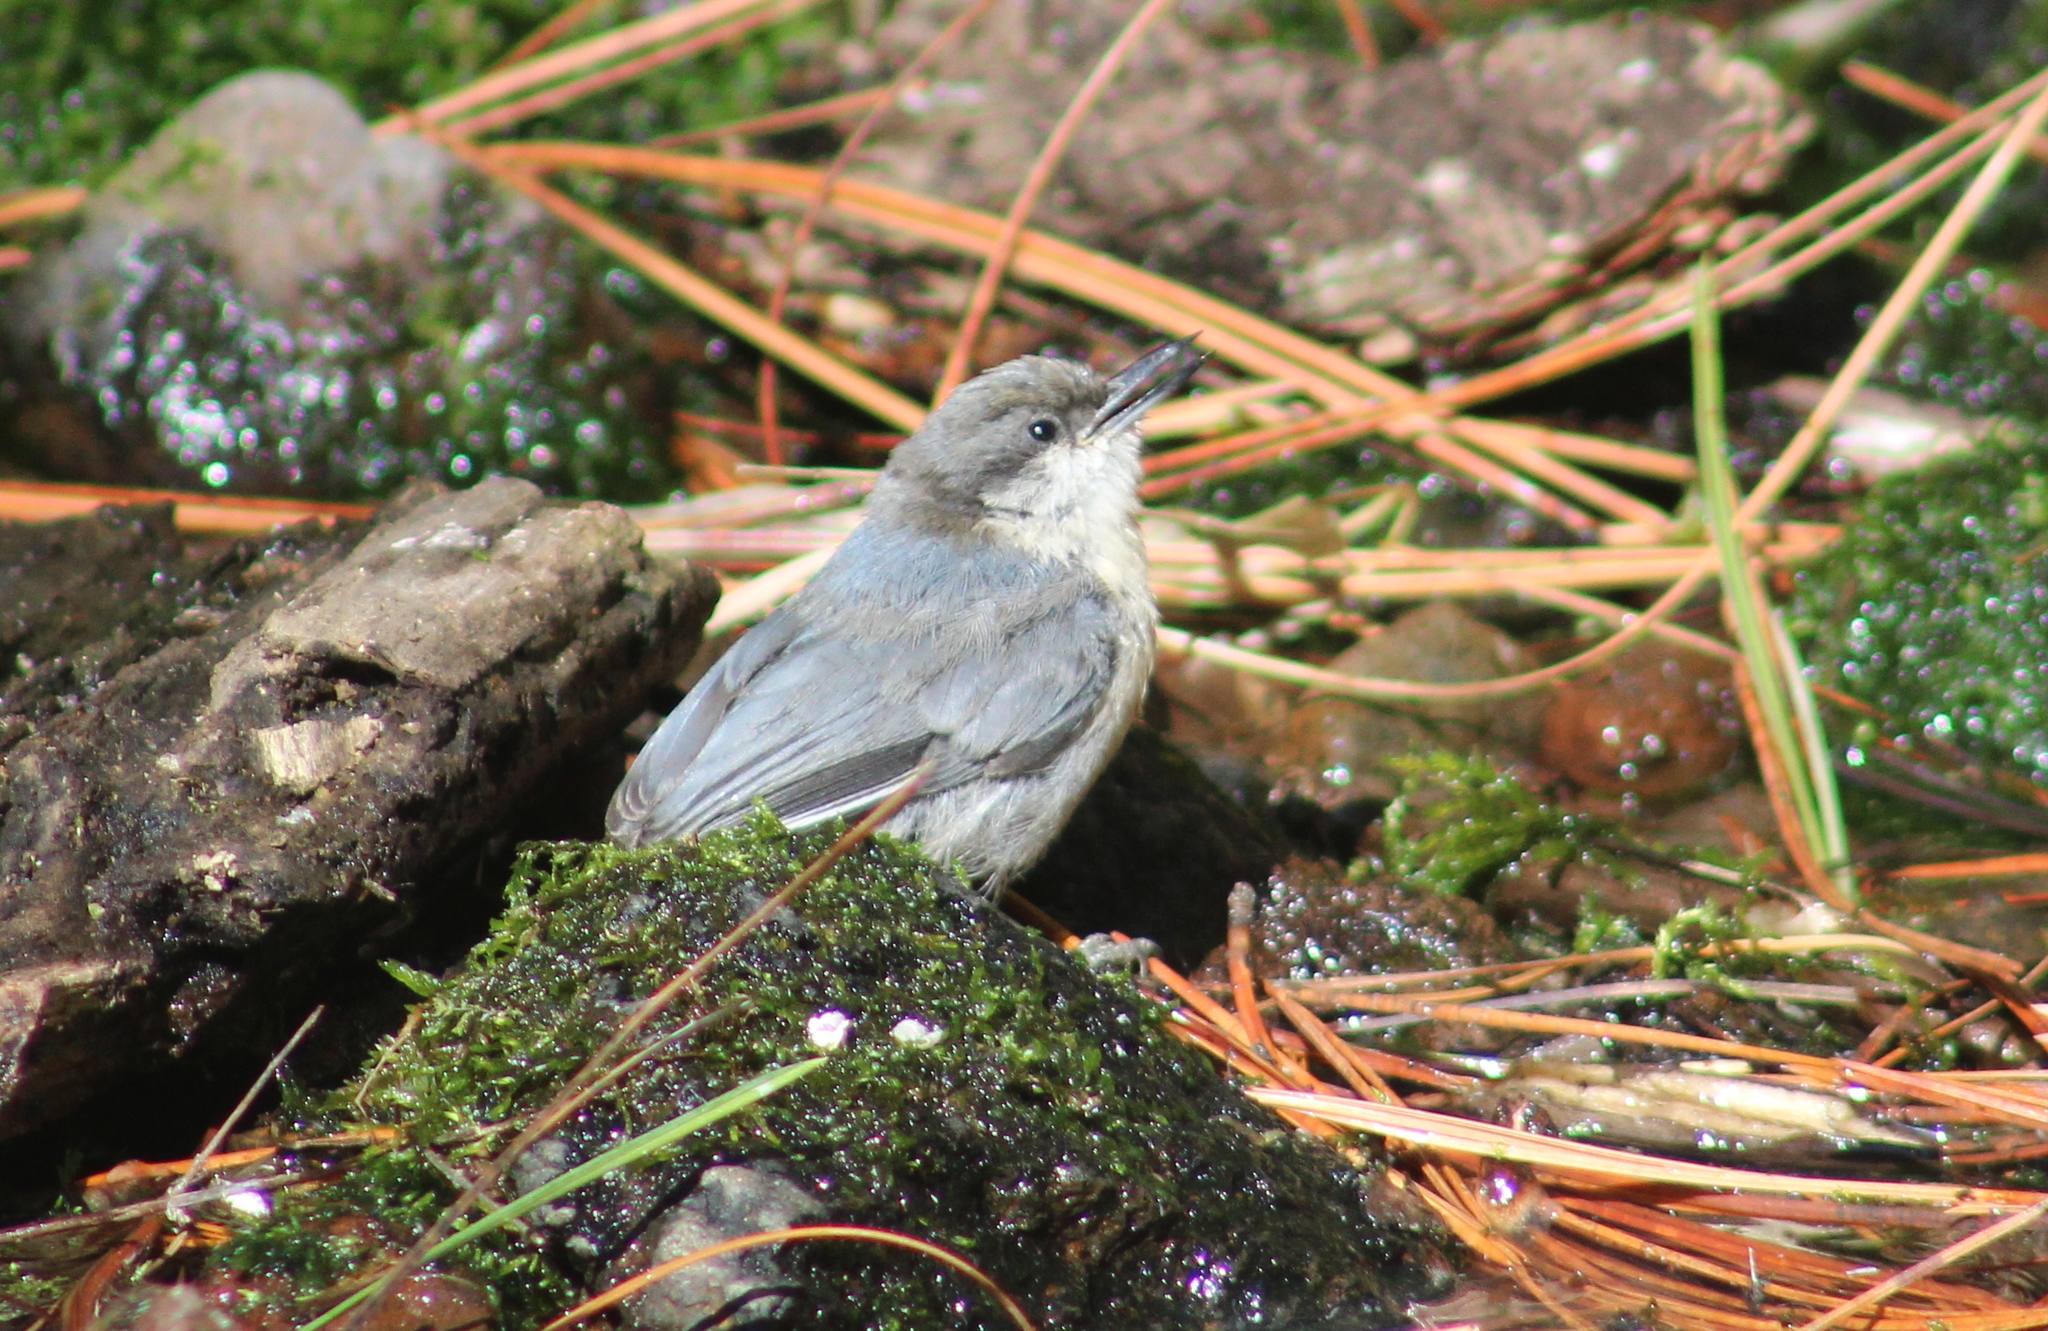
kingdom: Animalia
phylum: Chordata
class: Aves
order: Passeriformes
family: Sittidae
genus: Sitta
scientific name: Sitta pygmaea
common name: Pygmy nuthatch
